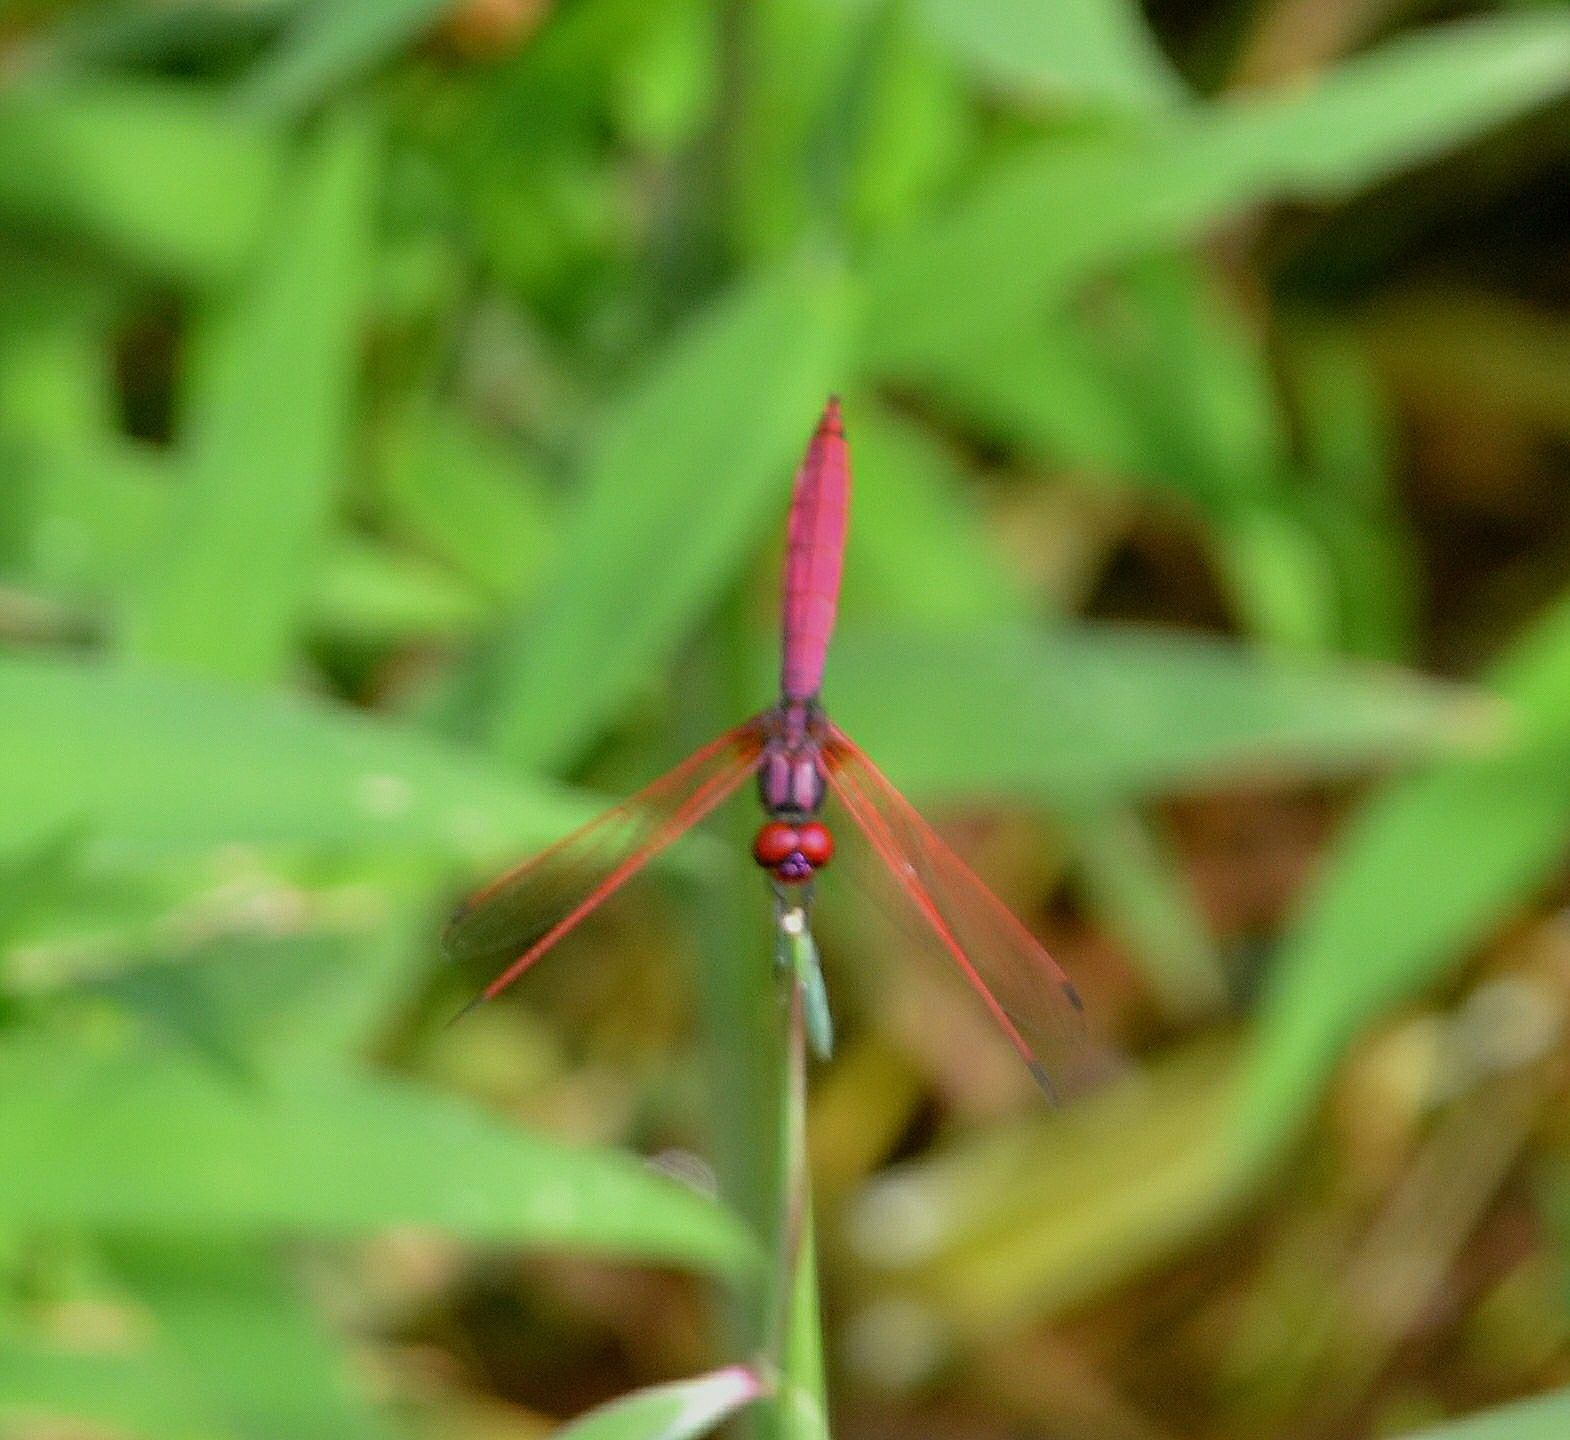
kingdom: Animalia
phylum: Arthropoda
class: Insecta
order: Odonata
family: Libellulidae
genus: Trithemis
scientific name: Trithemis aurora
